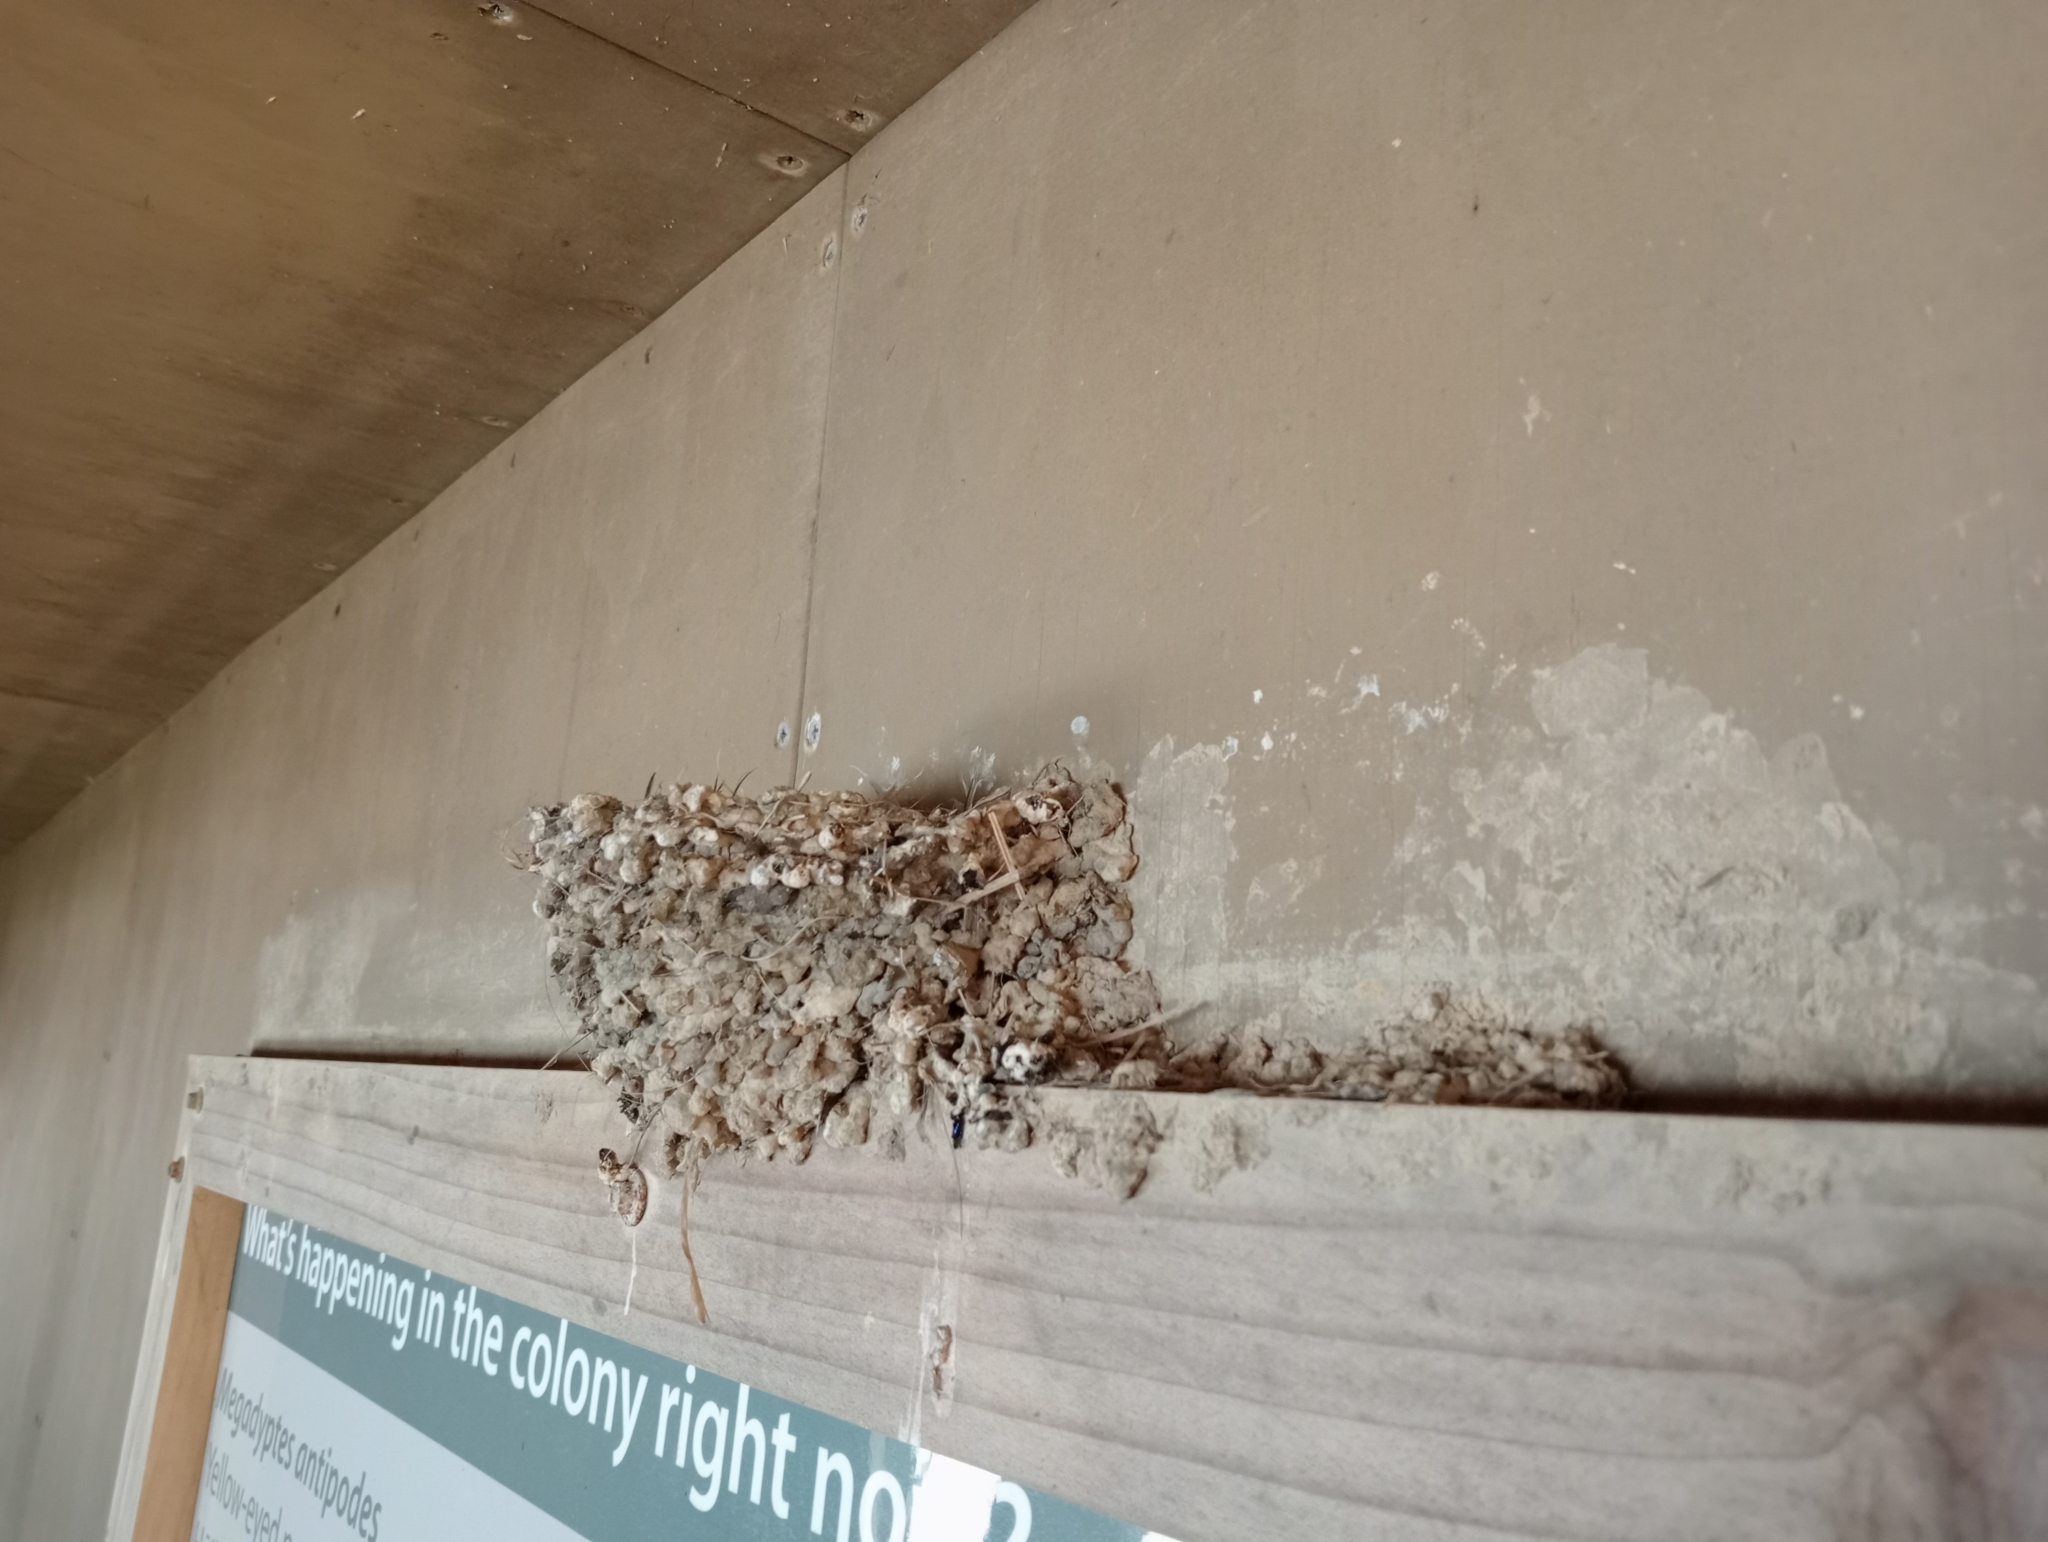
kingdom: Animalia
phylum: Chordata
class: Aves
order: Passeriformes
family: Hirundinidae
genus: Hirundo
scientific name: Hirundo neoxena
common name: Welcome swallow
